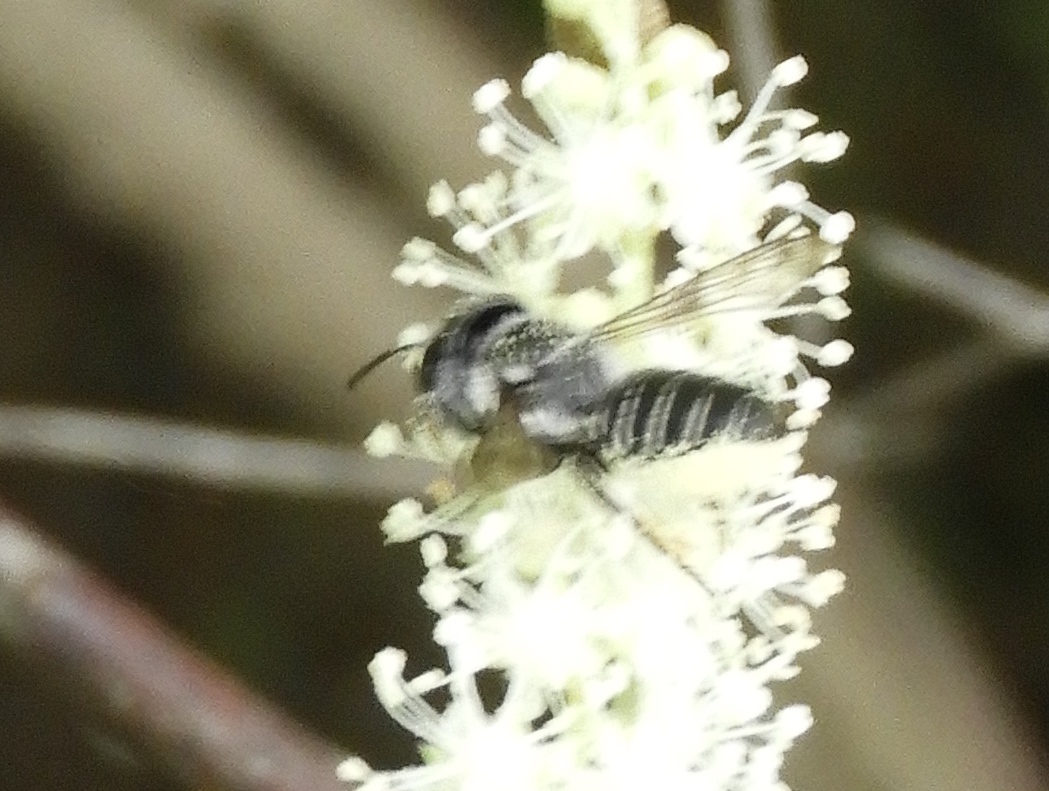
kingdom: Animalia
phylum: Arthropoda
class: Insecta
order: Hymenoptera
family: Megachilidae
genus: Megachile
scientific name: Megachile
